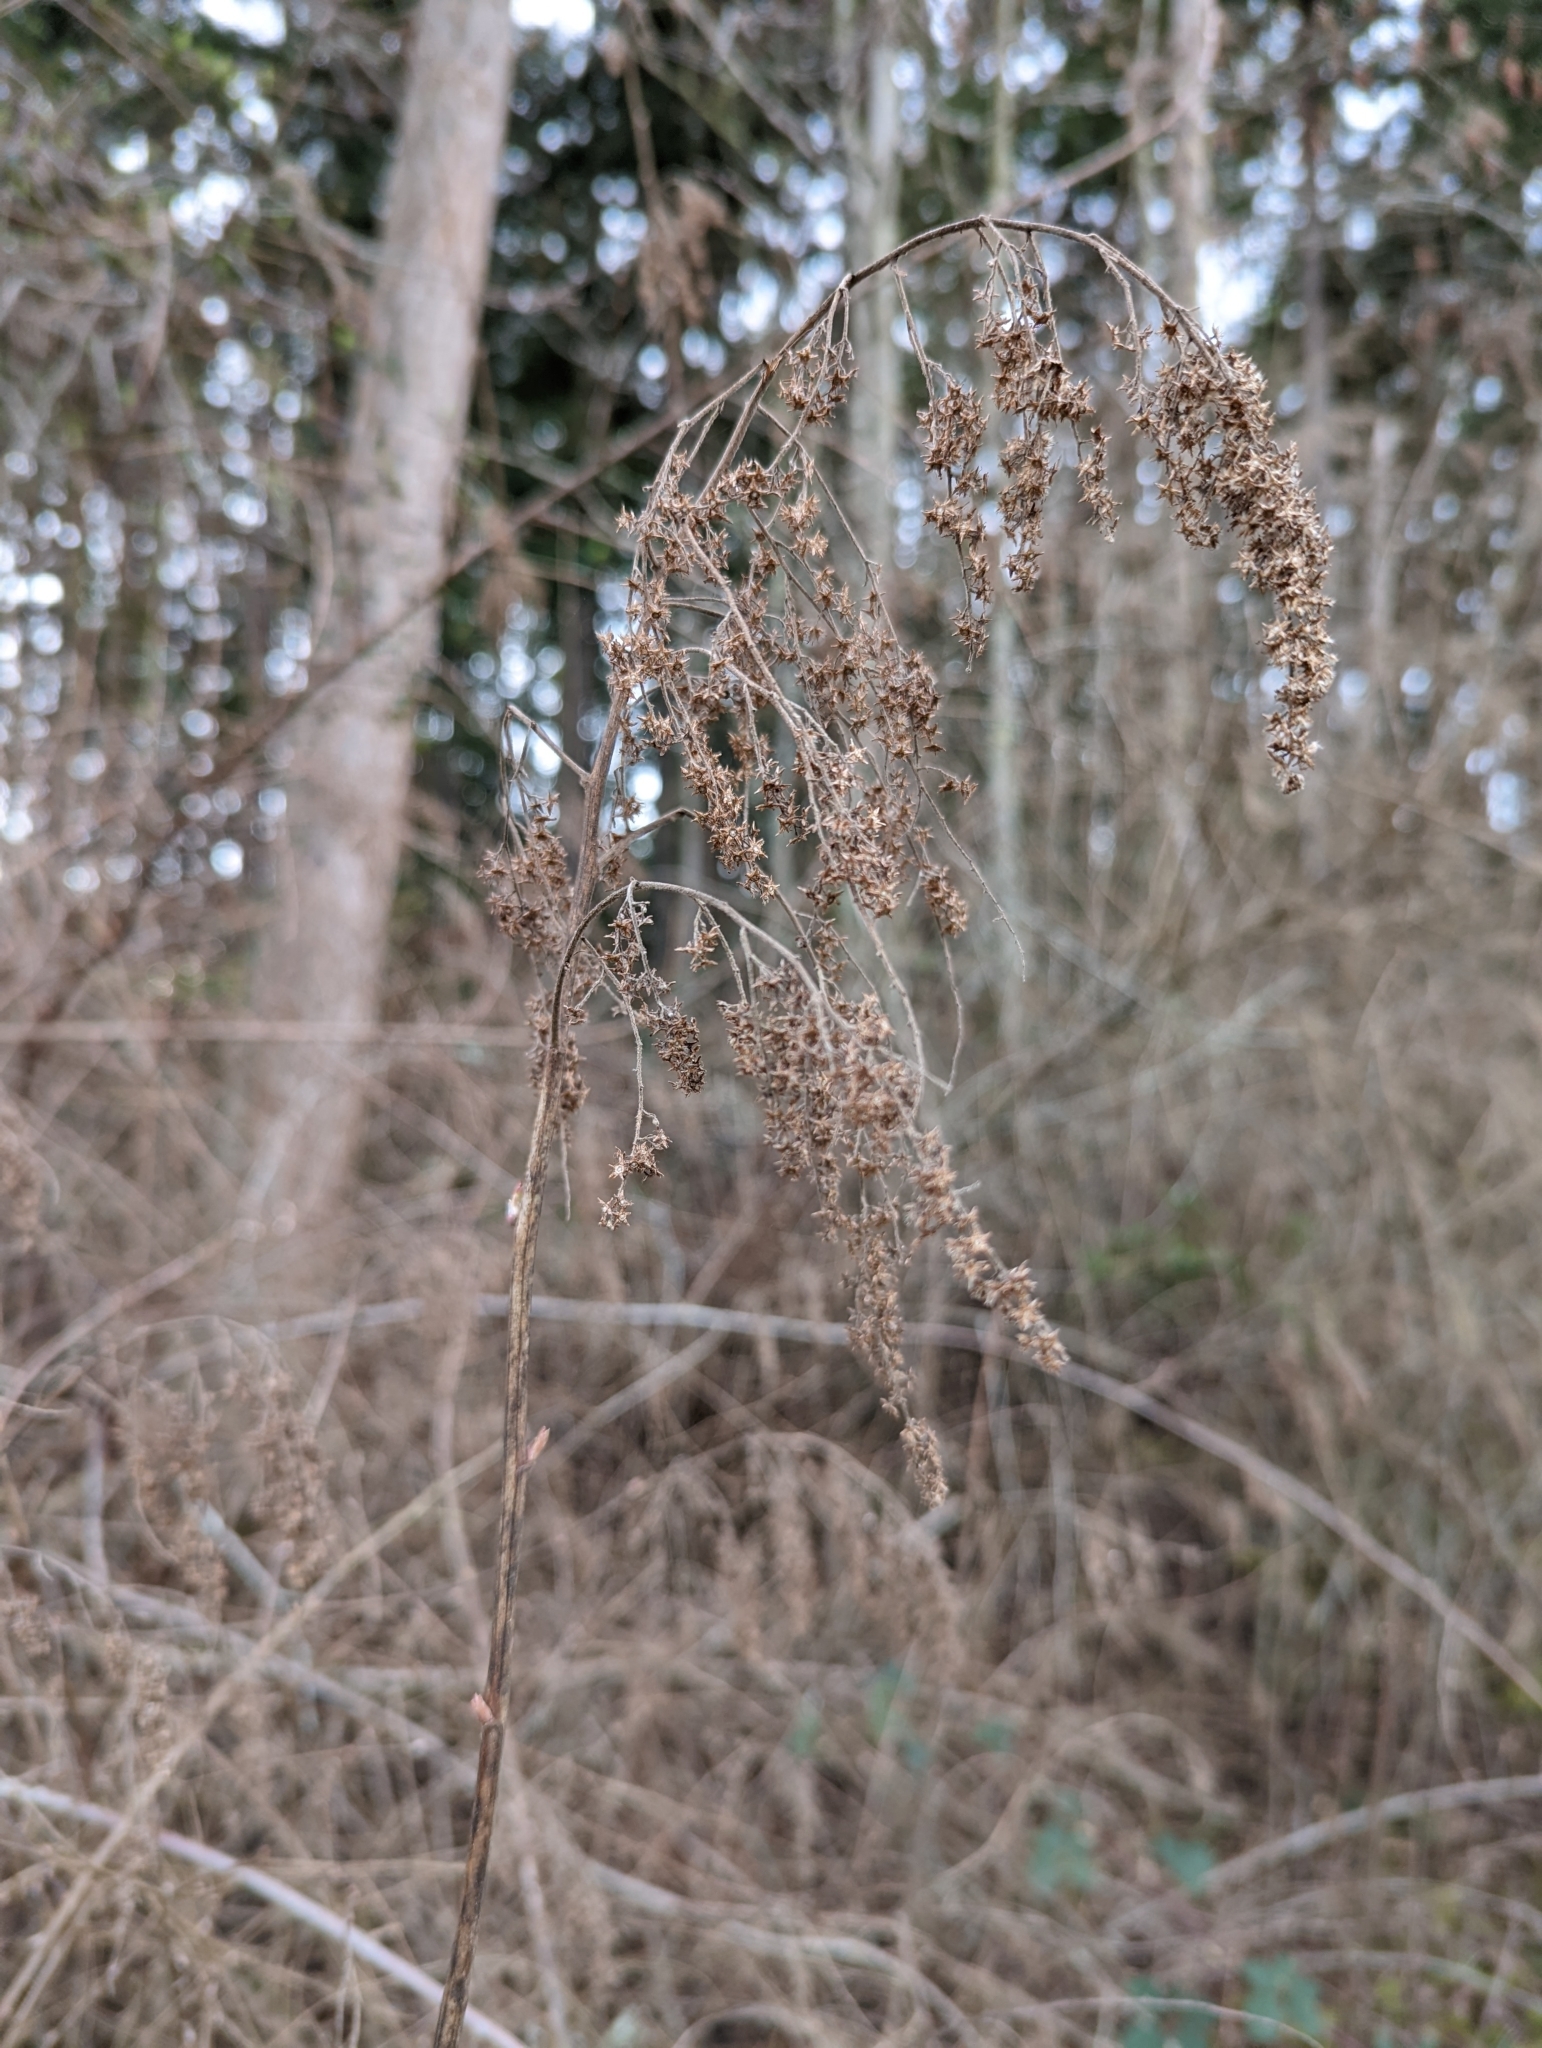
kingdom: Plantae
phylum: Tracheophyta
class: Magnoliopsida
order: Rosales
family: Rosaceae
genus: Holodiscus
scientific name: Holodiscus discolor
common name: Oceanspray
